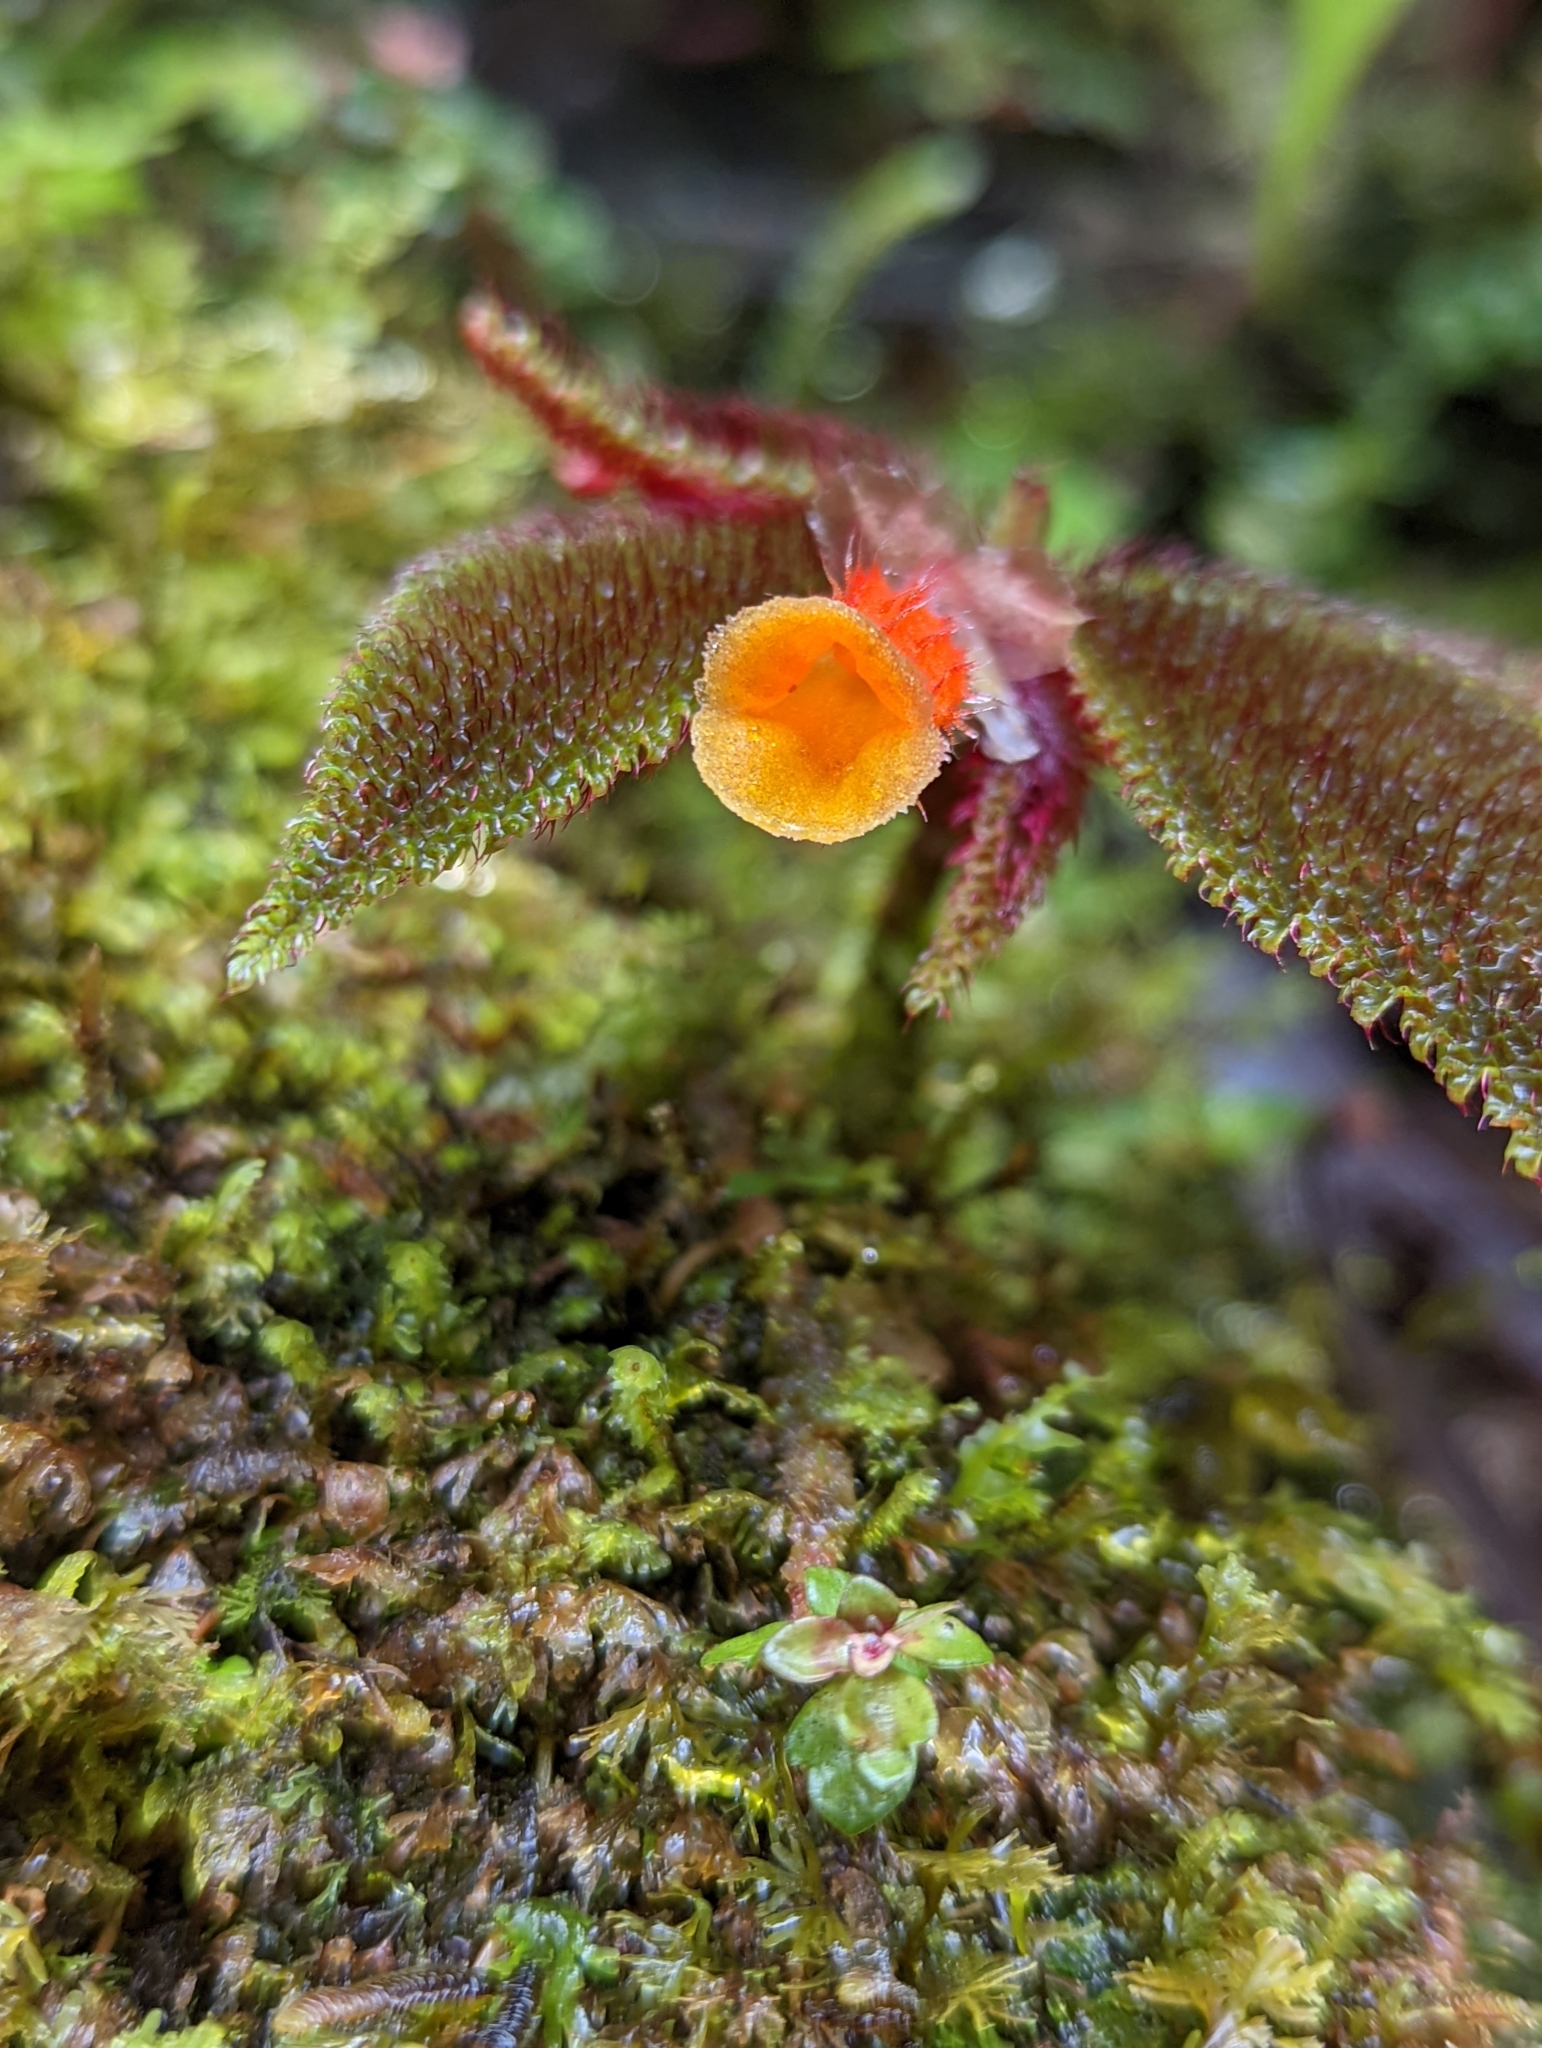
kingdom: Plantae
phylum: Tracheophyta
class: Magnoliopsida
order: Cucurbitales
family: Begoniaceae
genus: Begonia
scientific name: Begonia lehmannii
